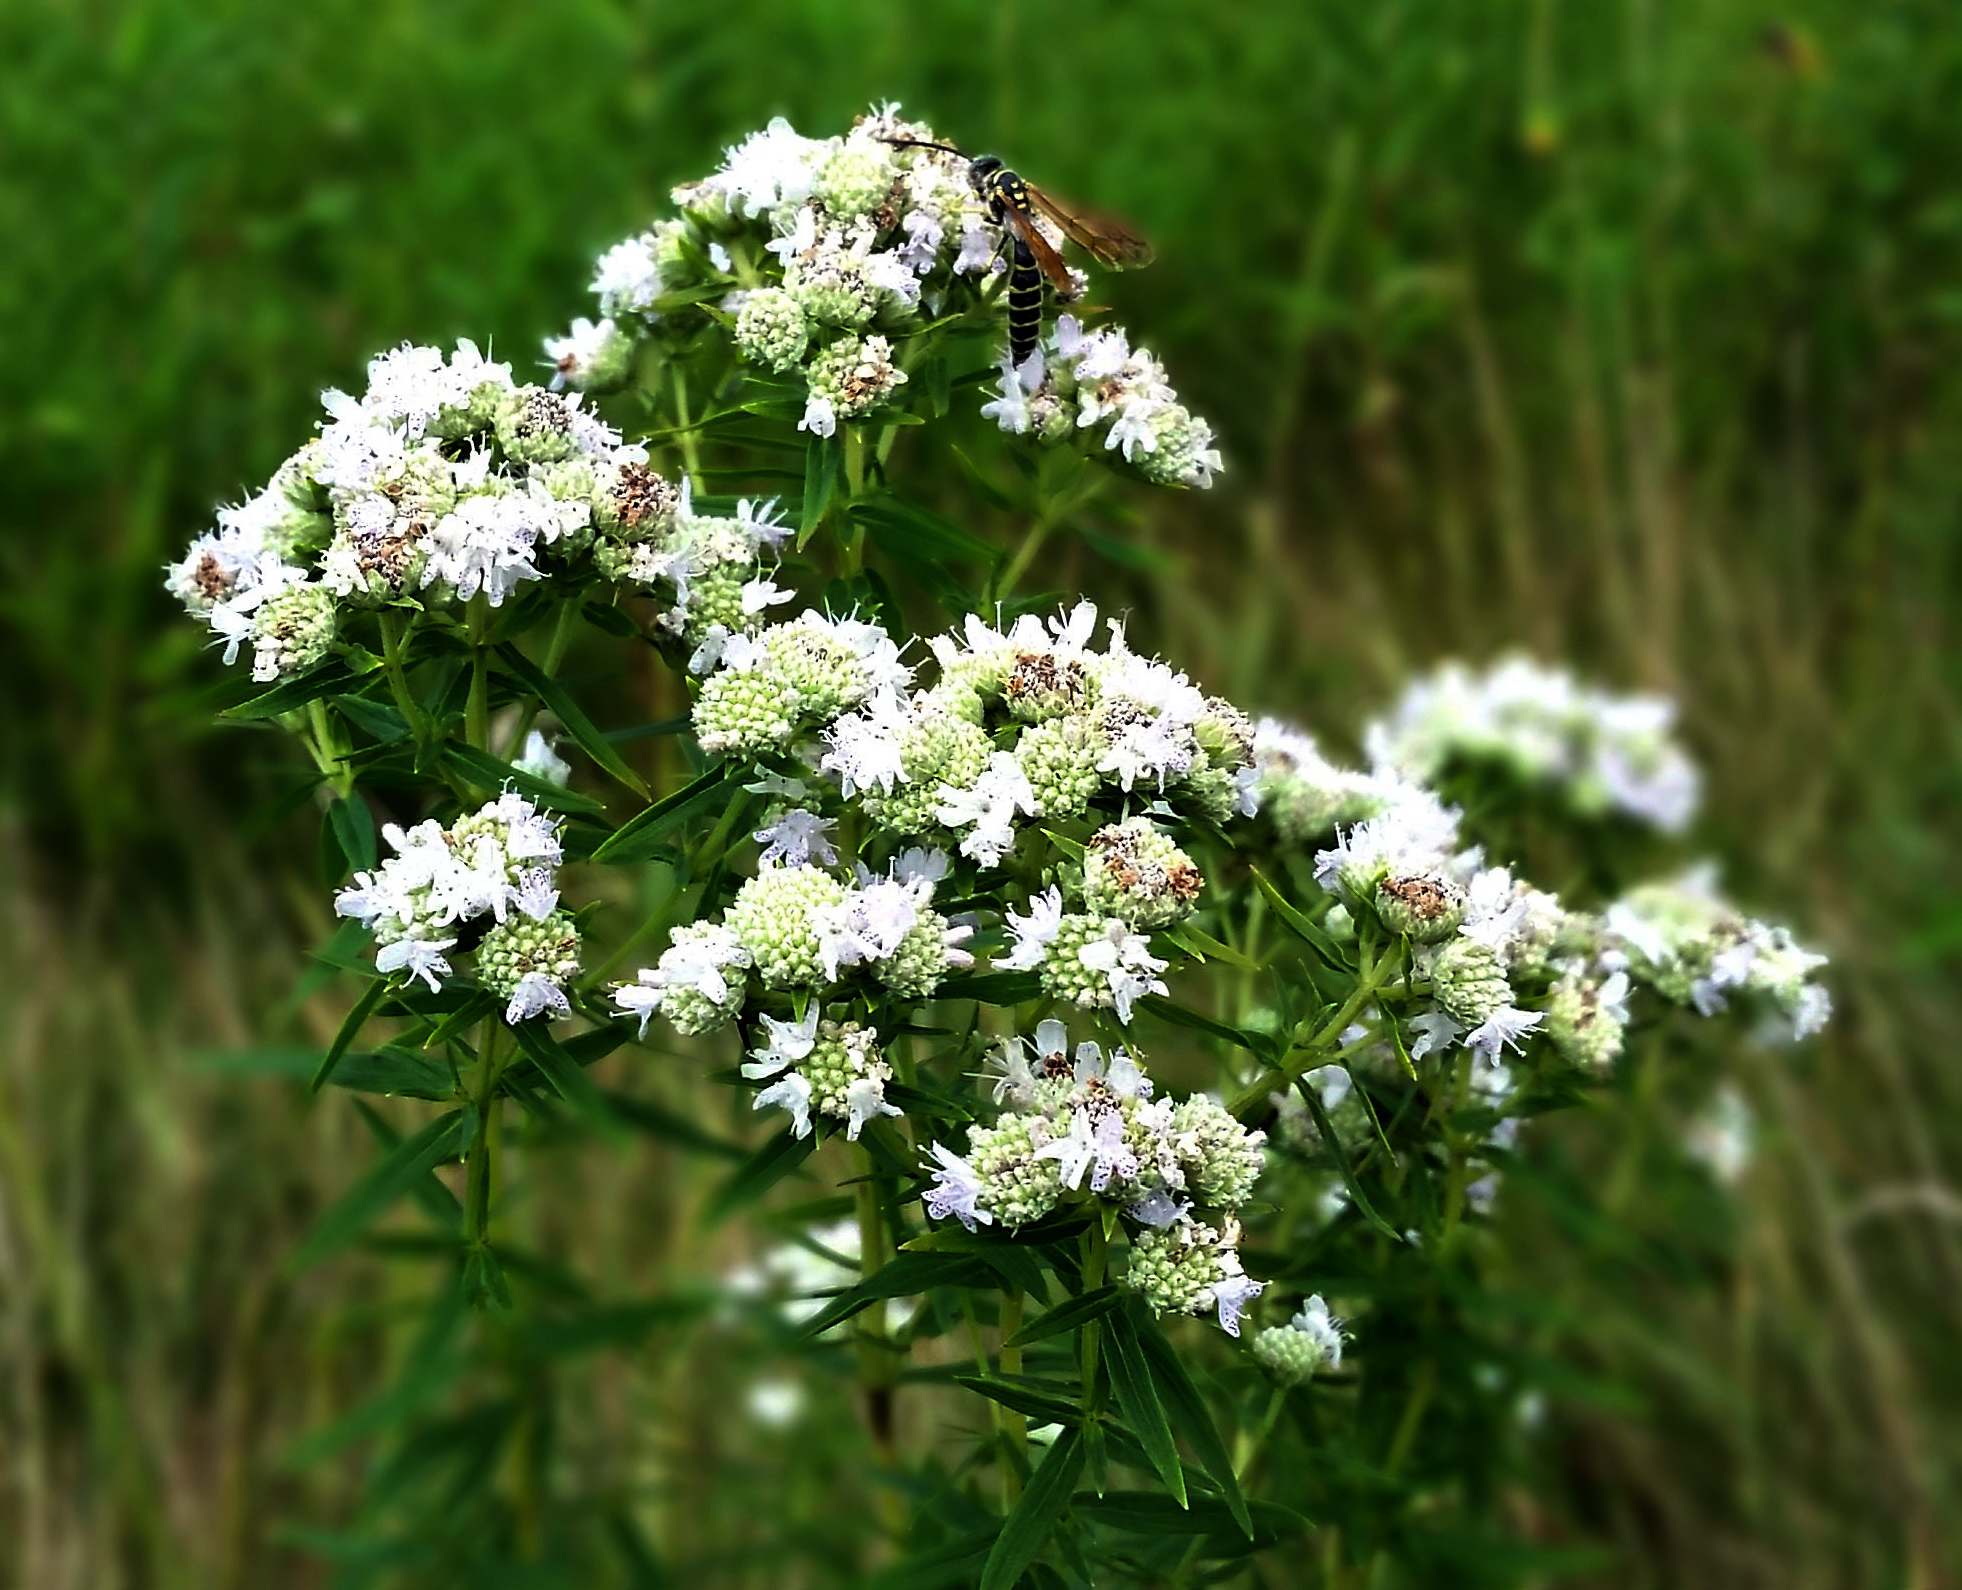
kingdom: Plantae
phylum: Tracheophyta
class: Magnoliopsida
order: Lamiales
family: Lamiaceae
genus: Pycnanthemum
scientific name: Pycnanthemum virginianum
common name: Virginia mountain-mint
